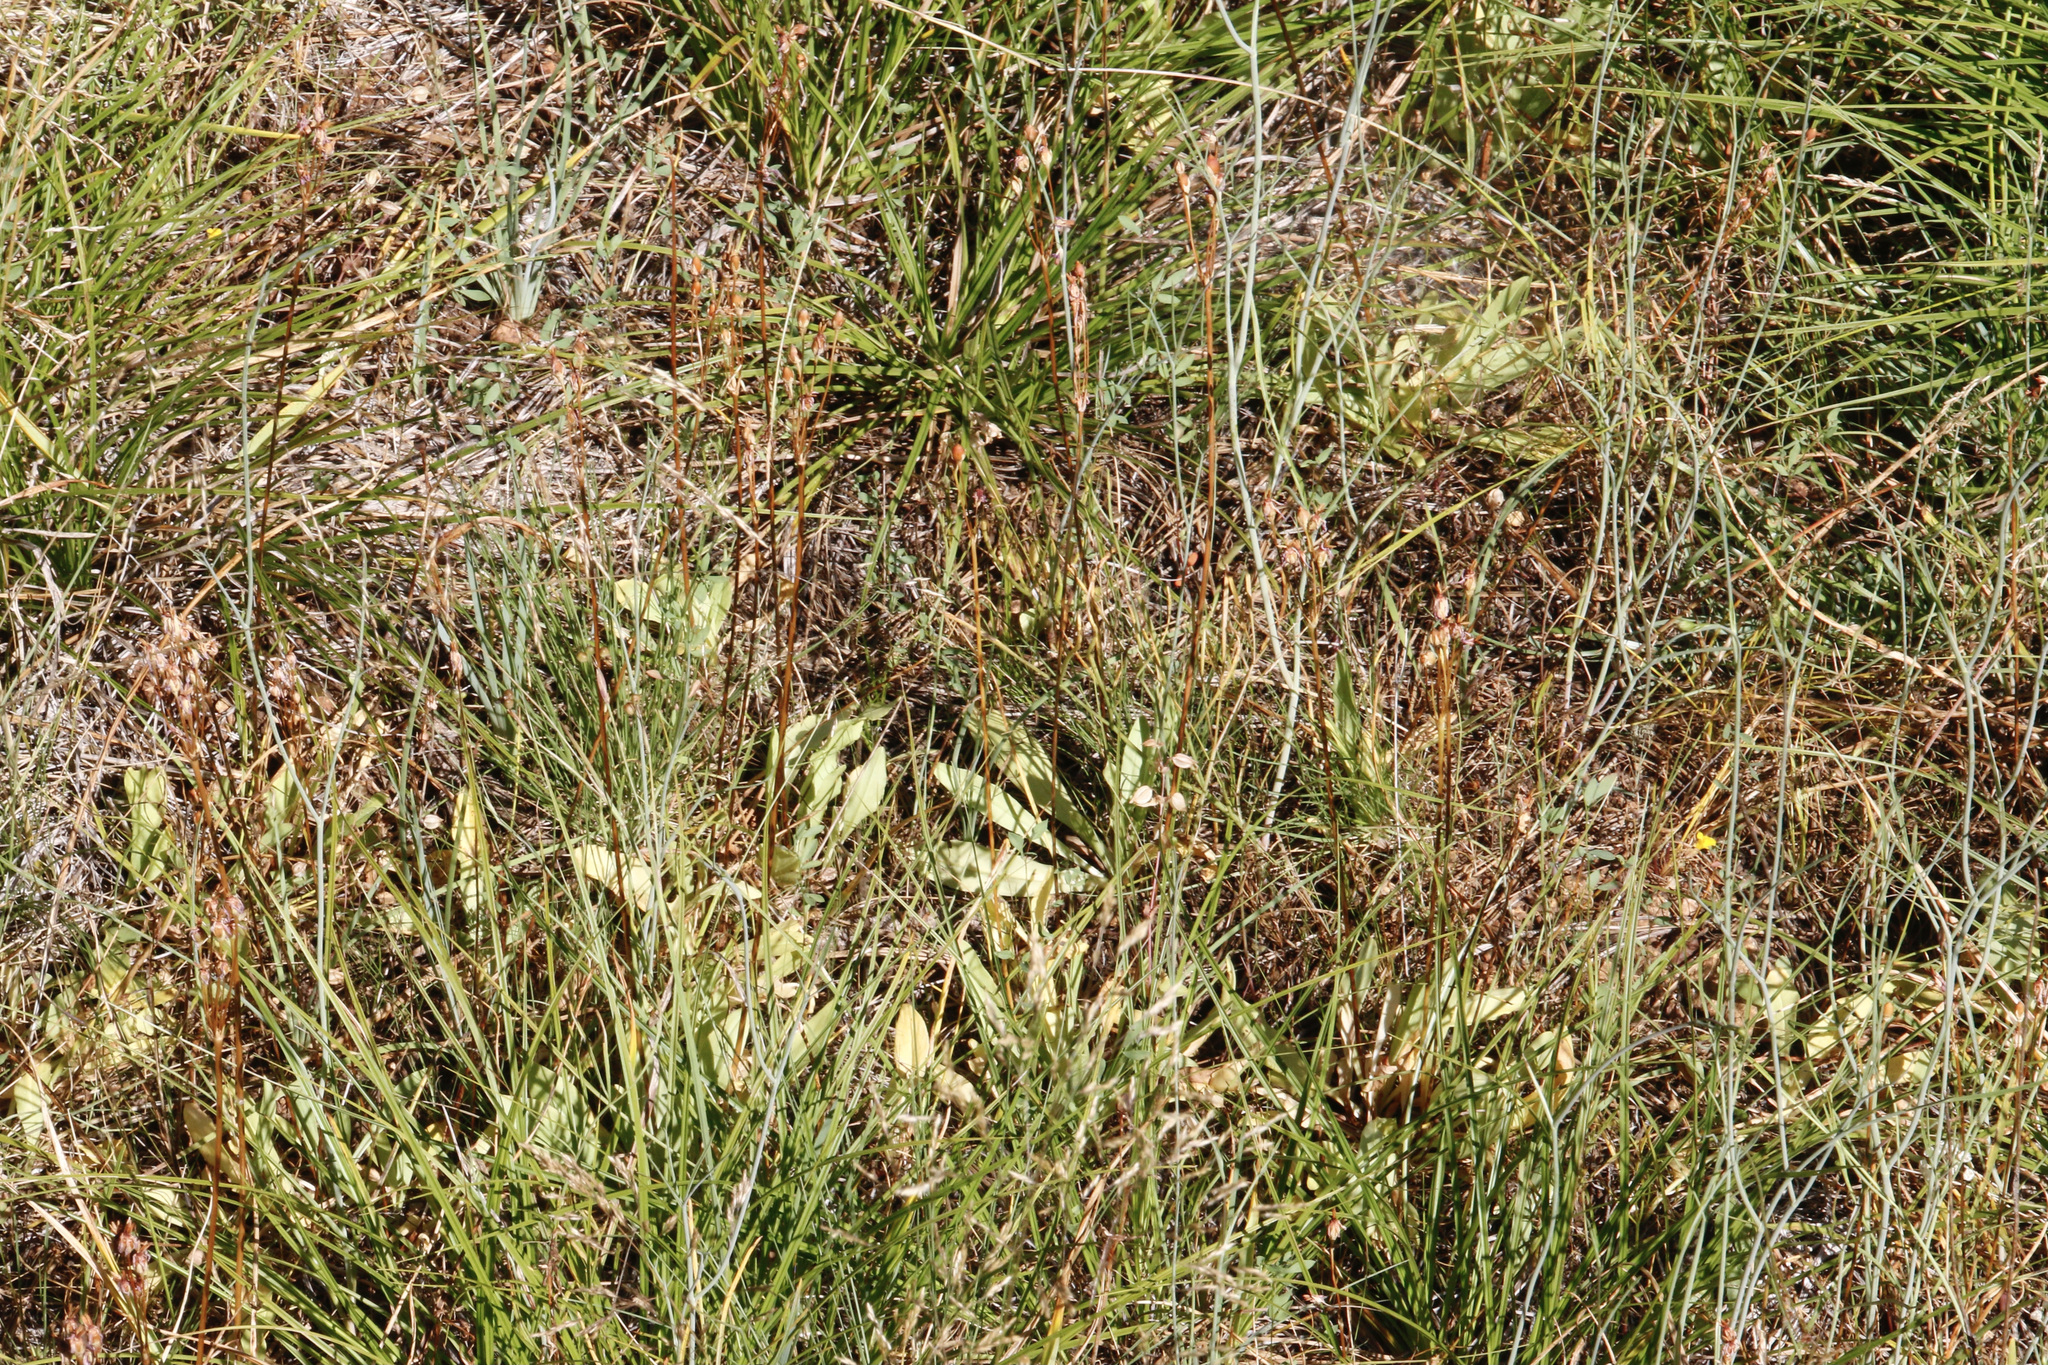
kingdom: Plantae
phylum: Tracheophyta
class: Magnoliopsida
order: Ericales
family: Primulaceae
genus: Dodecatheon
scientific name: Dodecatheon pulchellum
